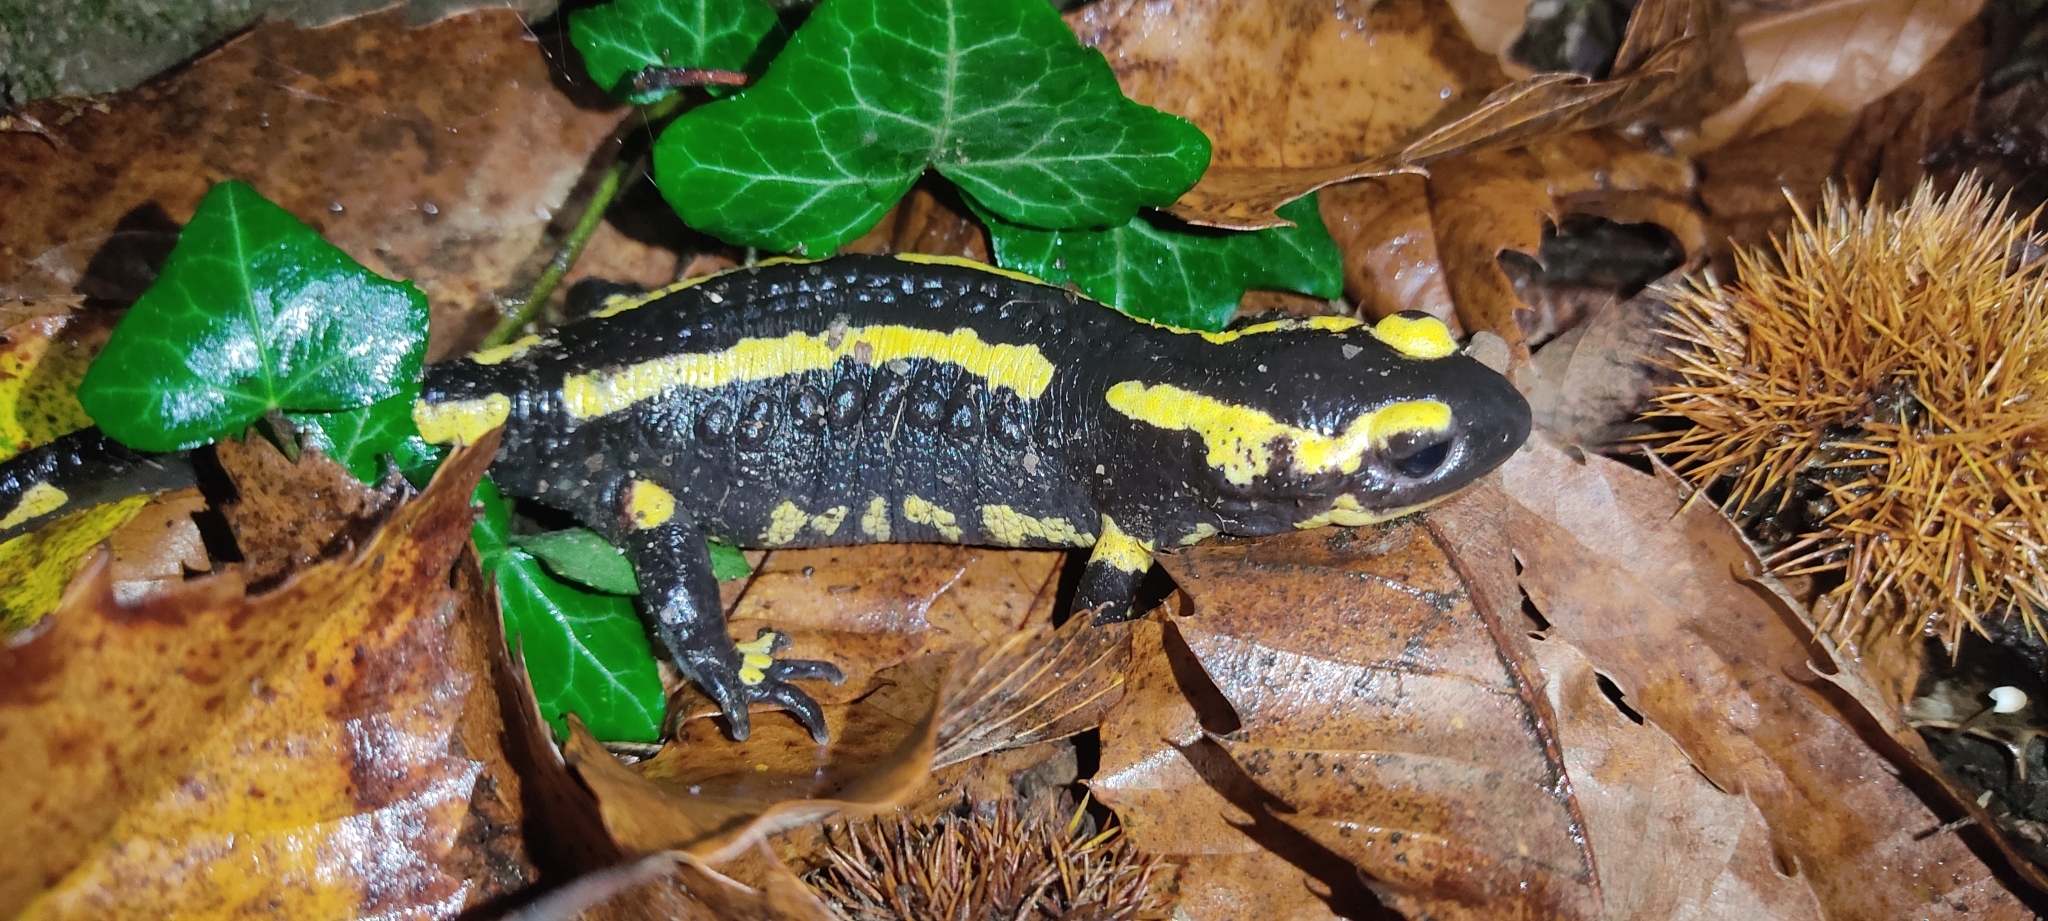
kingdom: Animalia
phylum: Chordata
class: Amphibia
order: Caudata
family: Salamandridae
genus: Salamandra
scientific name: Salamandra salamandra
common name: Fire salamander
